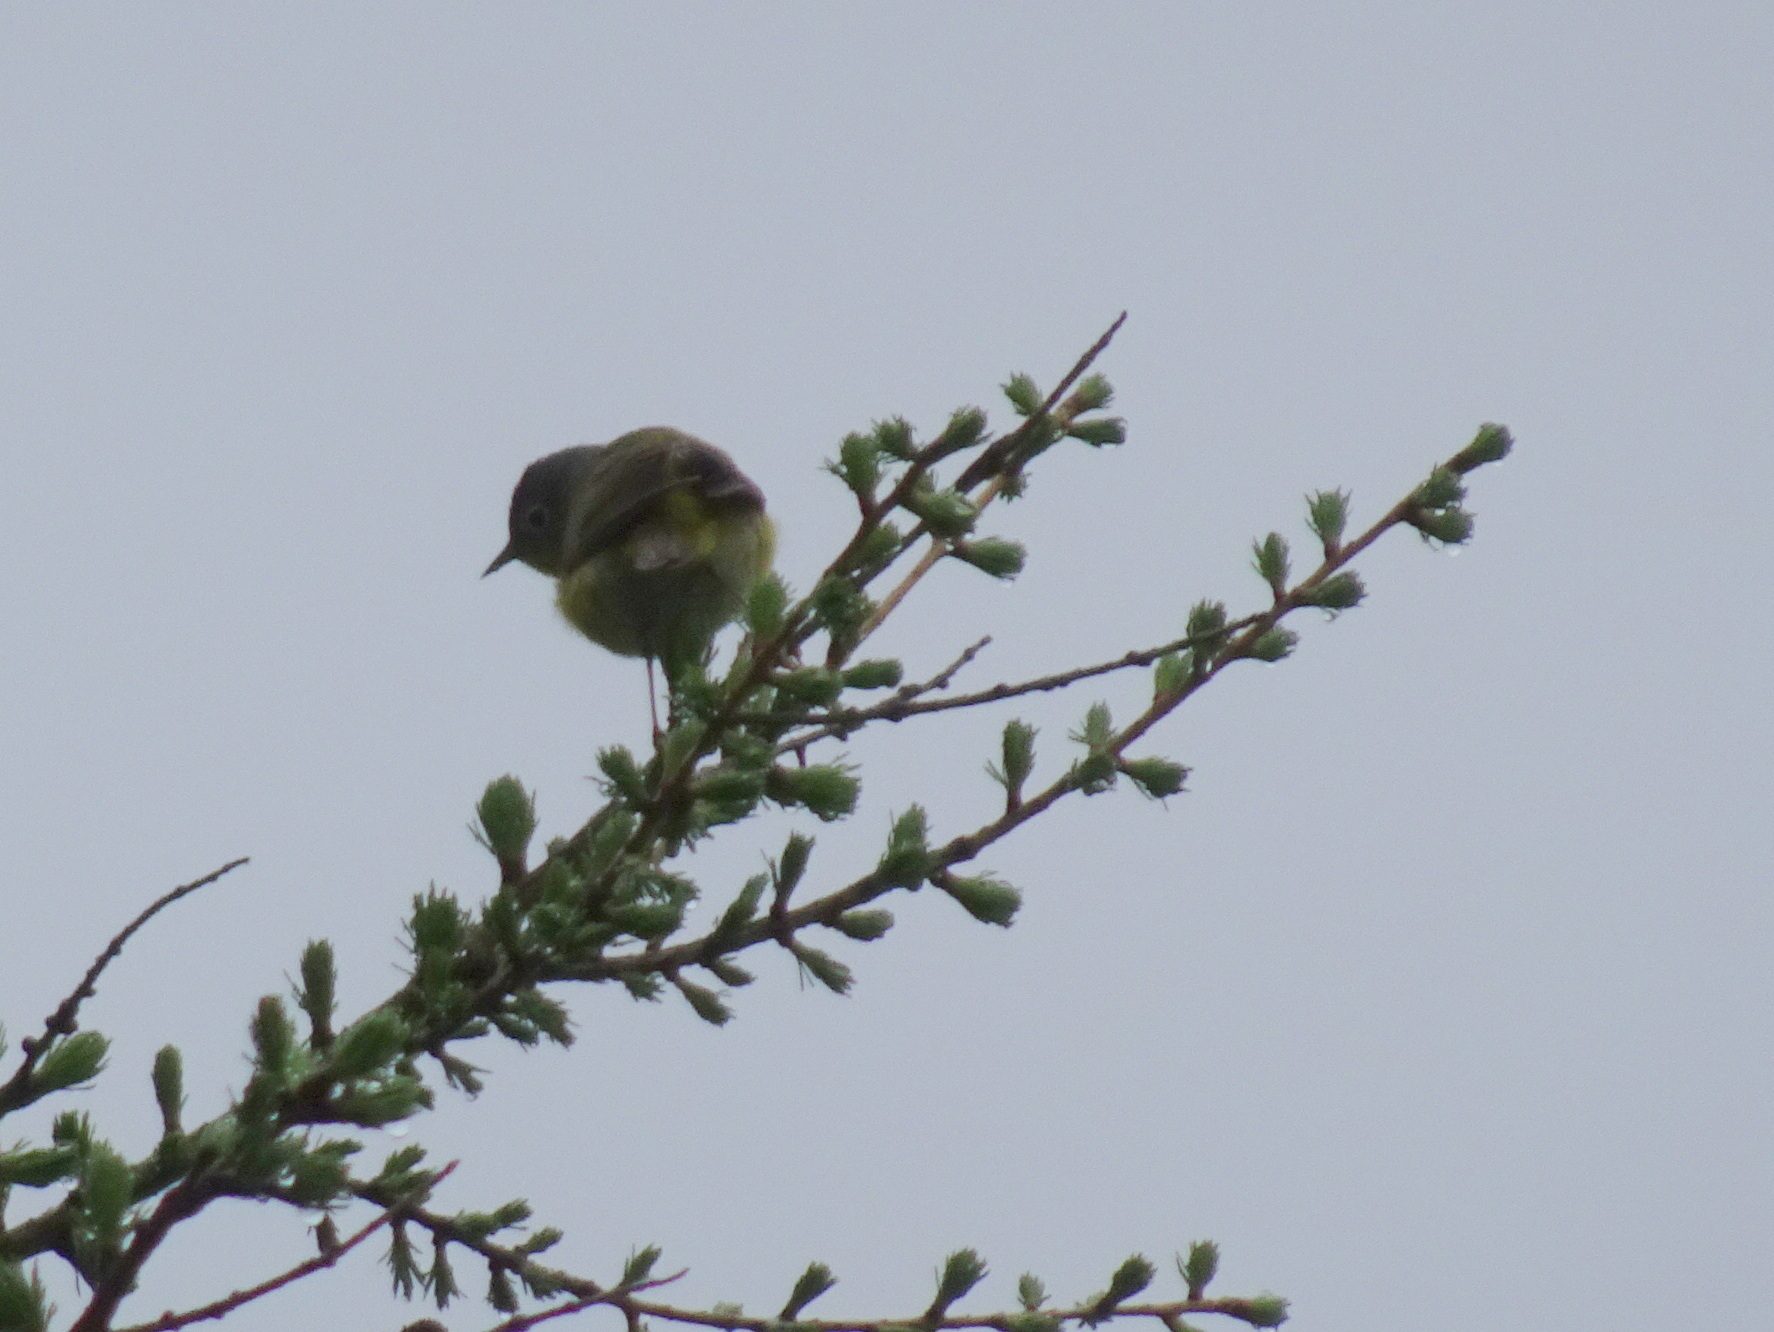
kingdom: Animalia
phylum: Chordata
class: Aves
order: Passeriformes
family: Parulidae
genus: Leiothlypis
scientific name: Leiothlypis ruficapilla
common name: Nashville warbler
